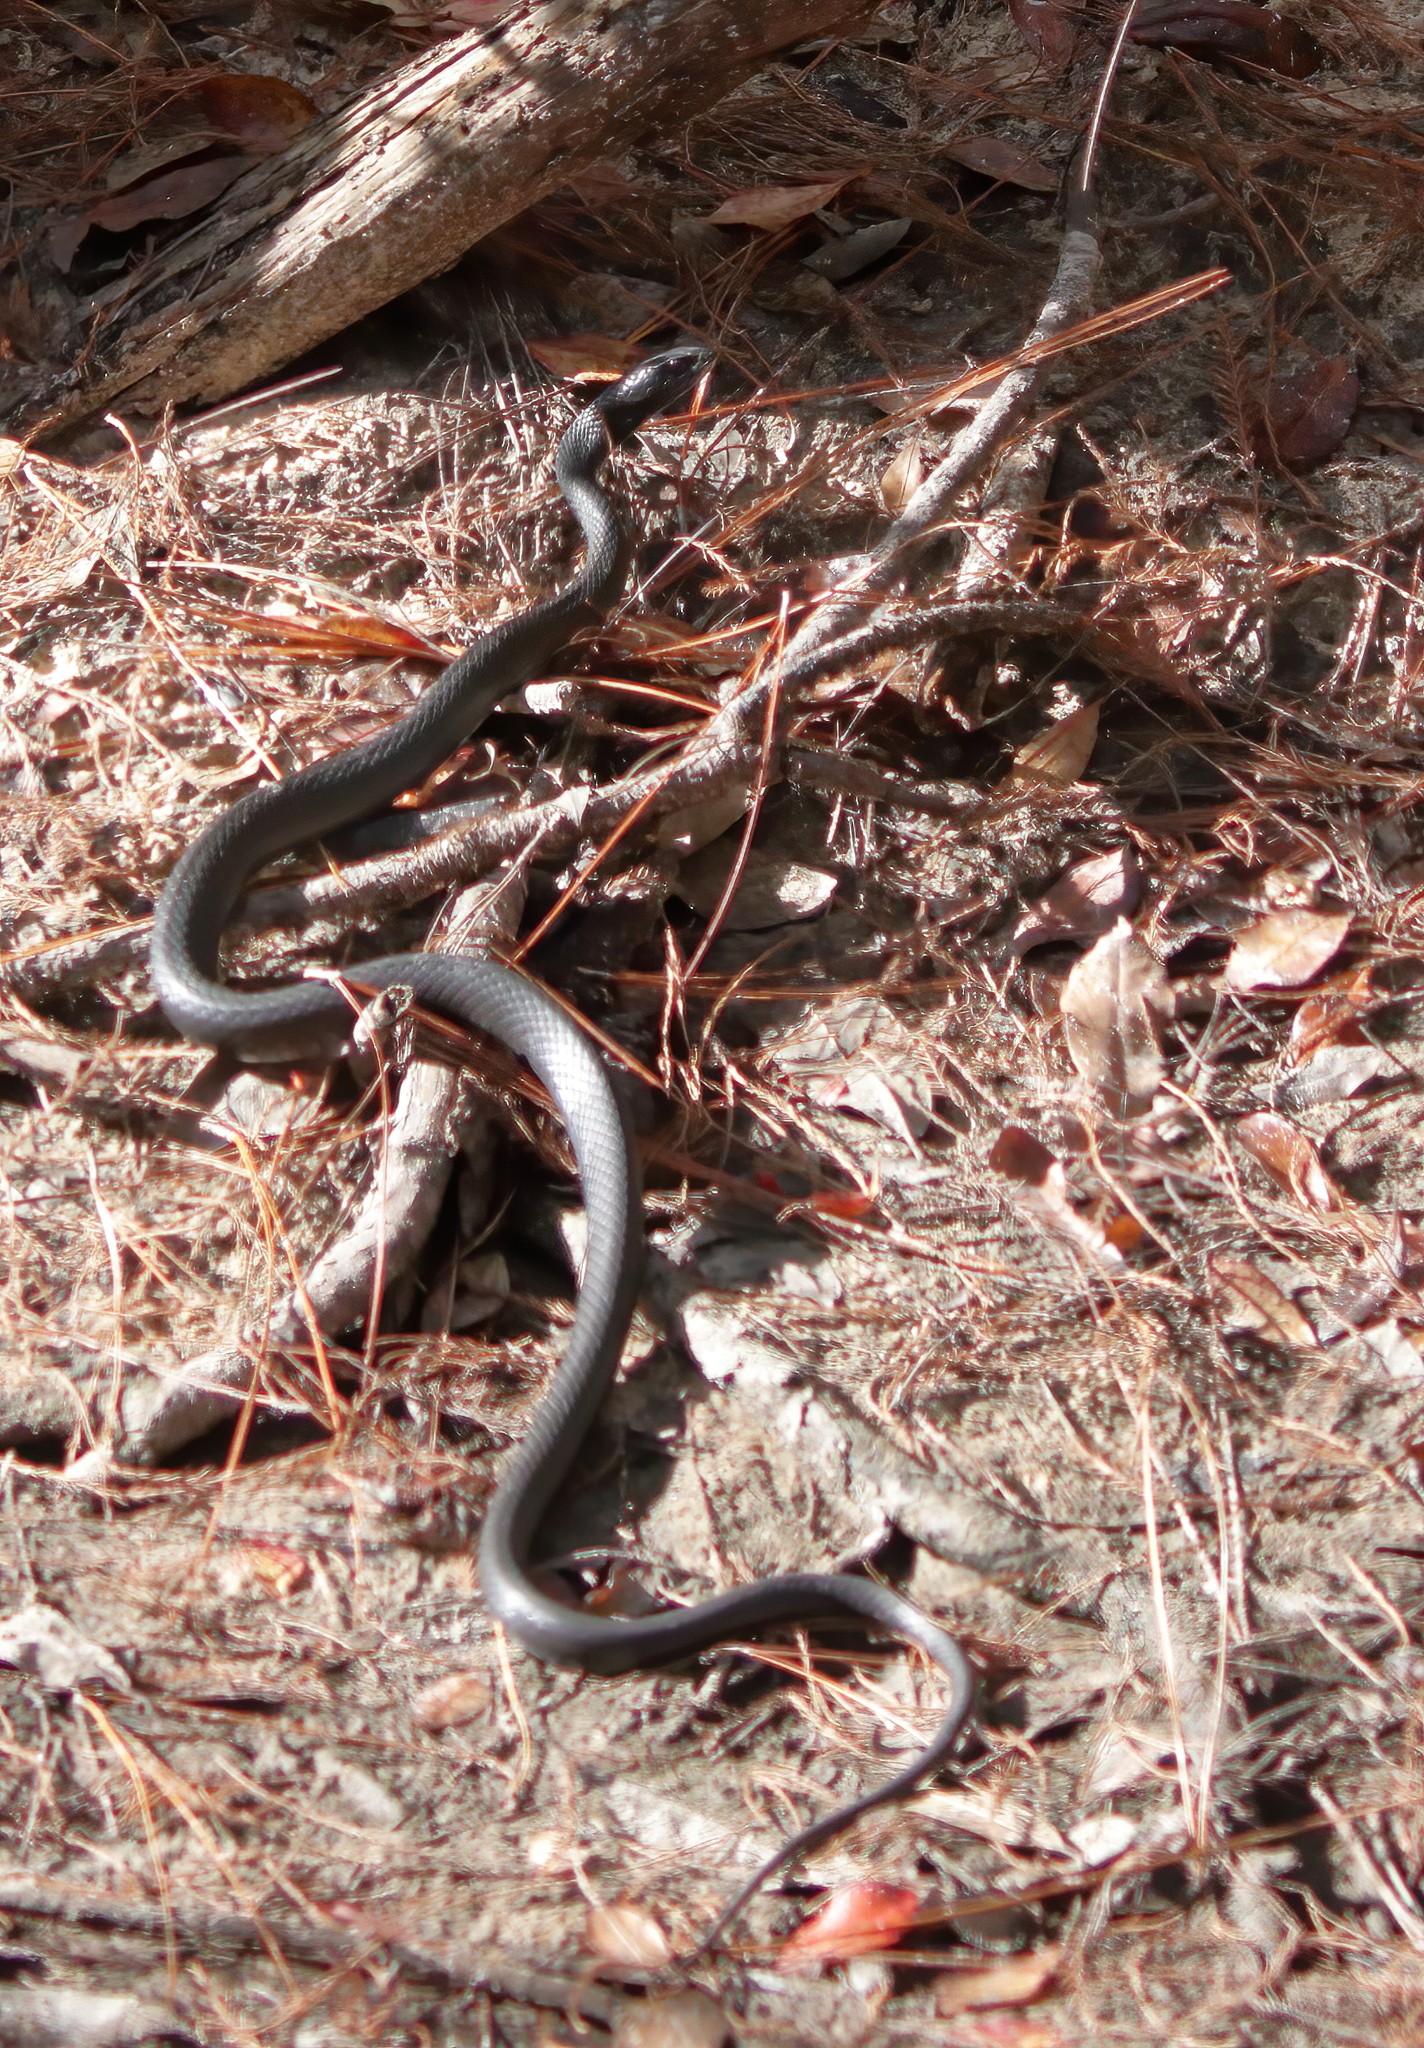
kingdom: Animalia
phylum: Chordata
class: Squamata
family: Colubridae
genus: Coluber
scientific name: Coluber constrictor
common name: Eastern racer
